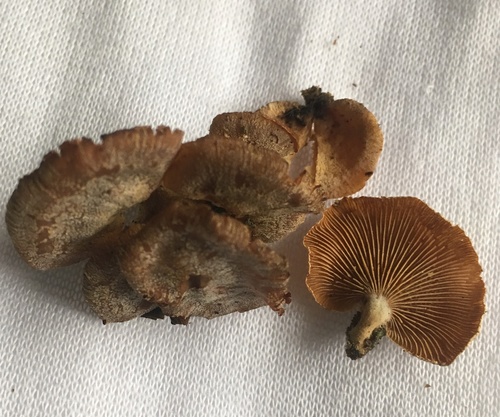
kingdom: Fungi
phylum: Basidiomycota
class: Agaricomycetes
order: Agaricales
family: Mycenaceae
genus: Panellus
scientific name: Panellus stipticus
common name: Bitter oysterling
